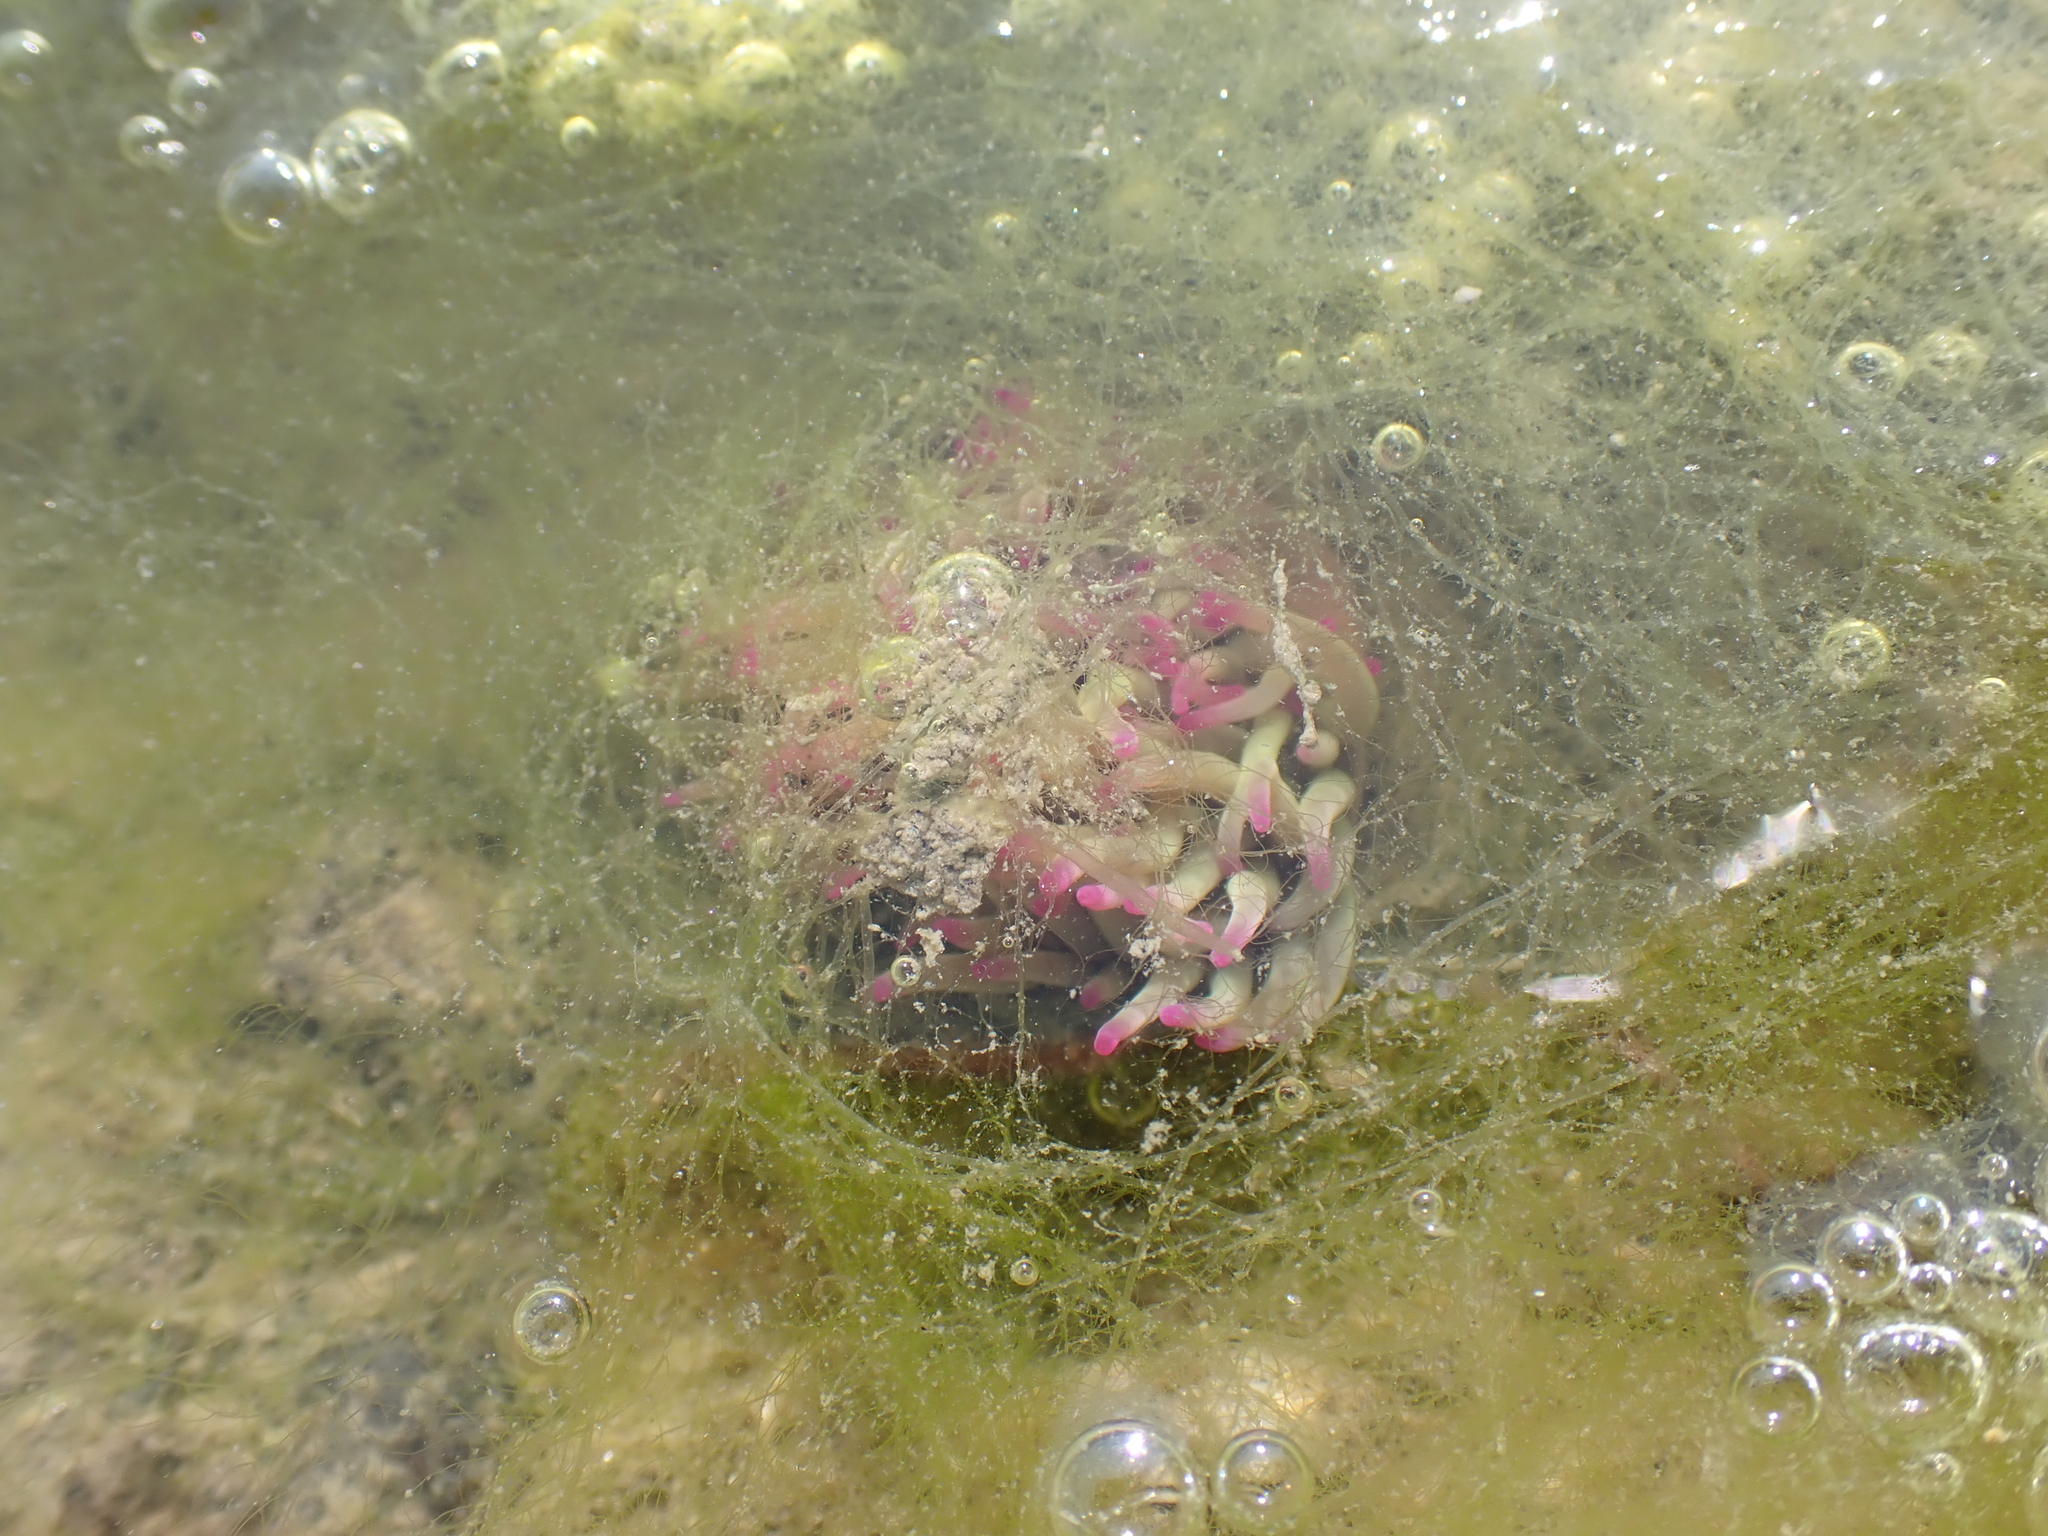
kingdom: Animalia
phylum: Cnidaria
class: Anthozoa
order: Actiniaria
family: Actiniidae
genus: Anemonia
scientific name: Anemonia viridis
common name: Snakelocks anemone
